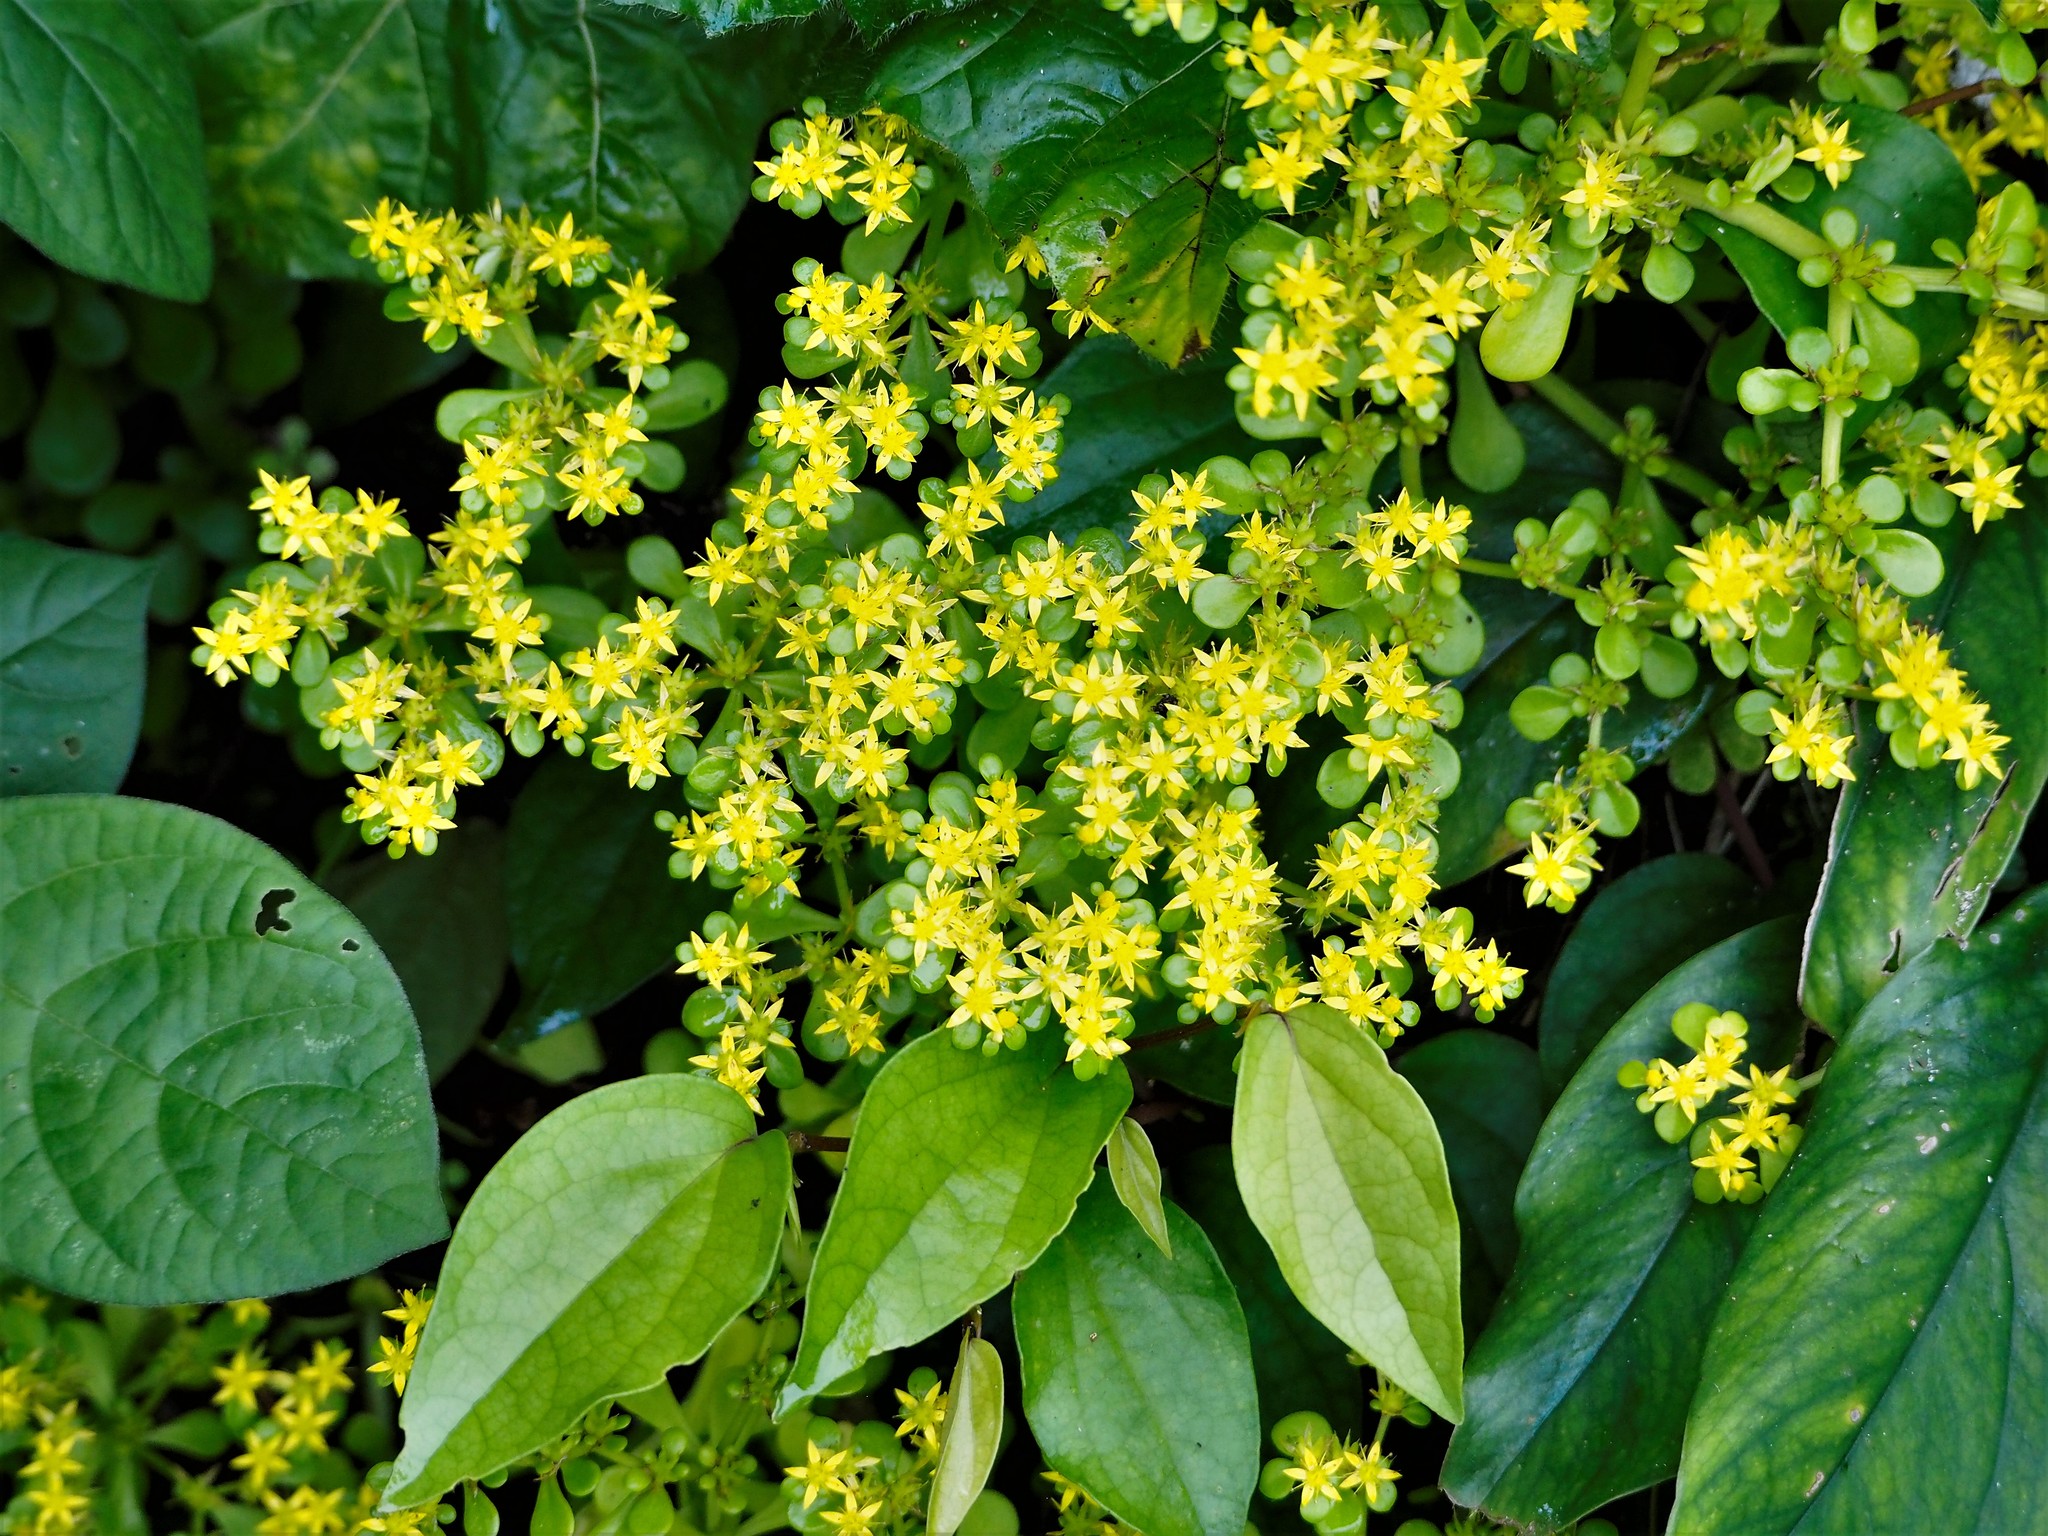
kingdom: Plantae
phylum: Tracheophyta
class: Magnoliopsida
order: Saxifragales
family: Crassulaceae
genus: Sedum
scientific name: Sedum formosanum
